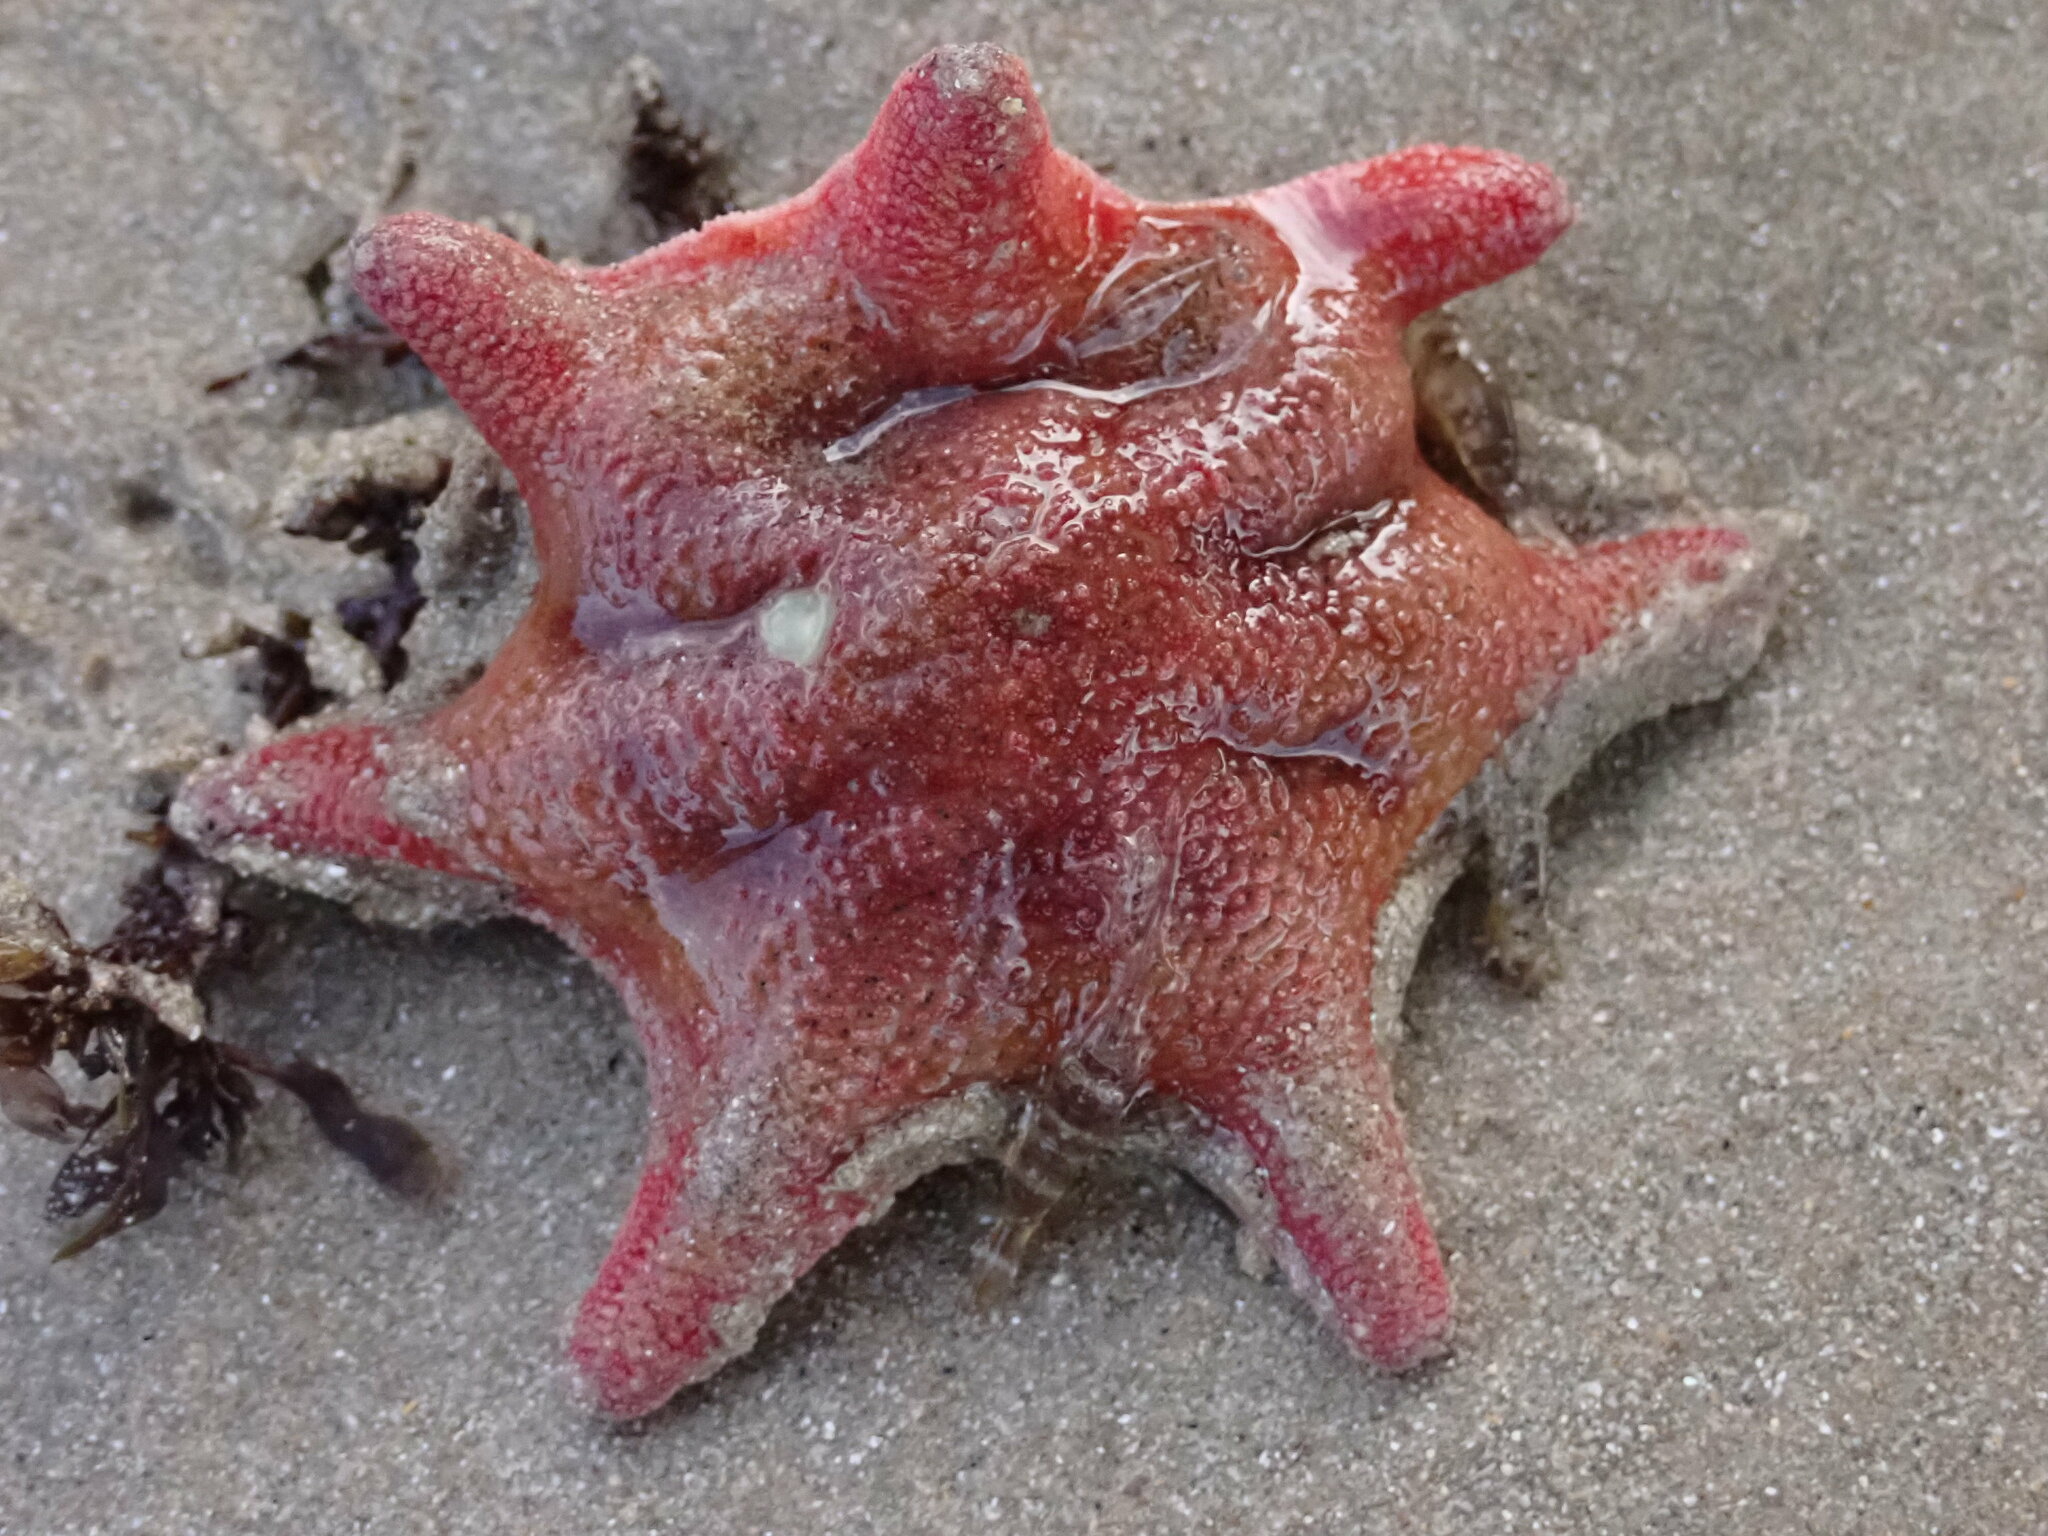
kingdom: Animalia
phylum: Echinodermata
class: Asteroidea
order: Valvatida
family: Asterinidae
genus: Meridiastra
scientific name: Meridiastra calcar
